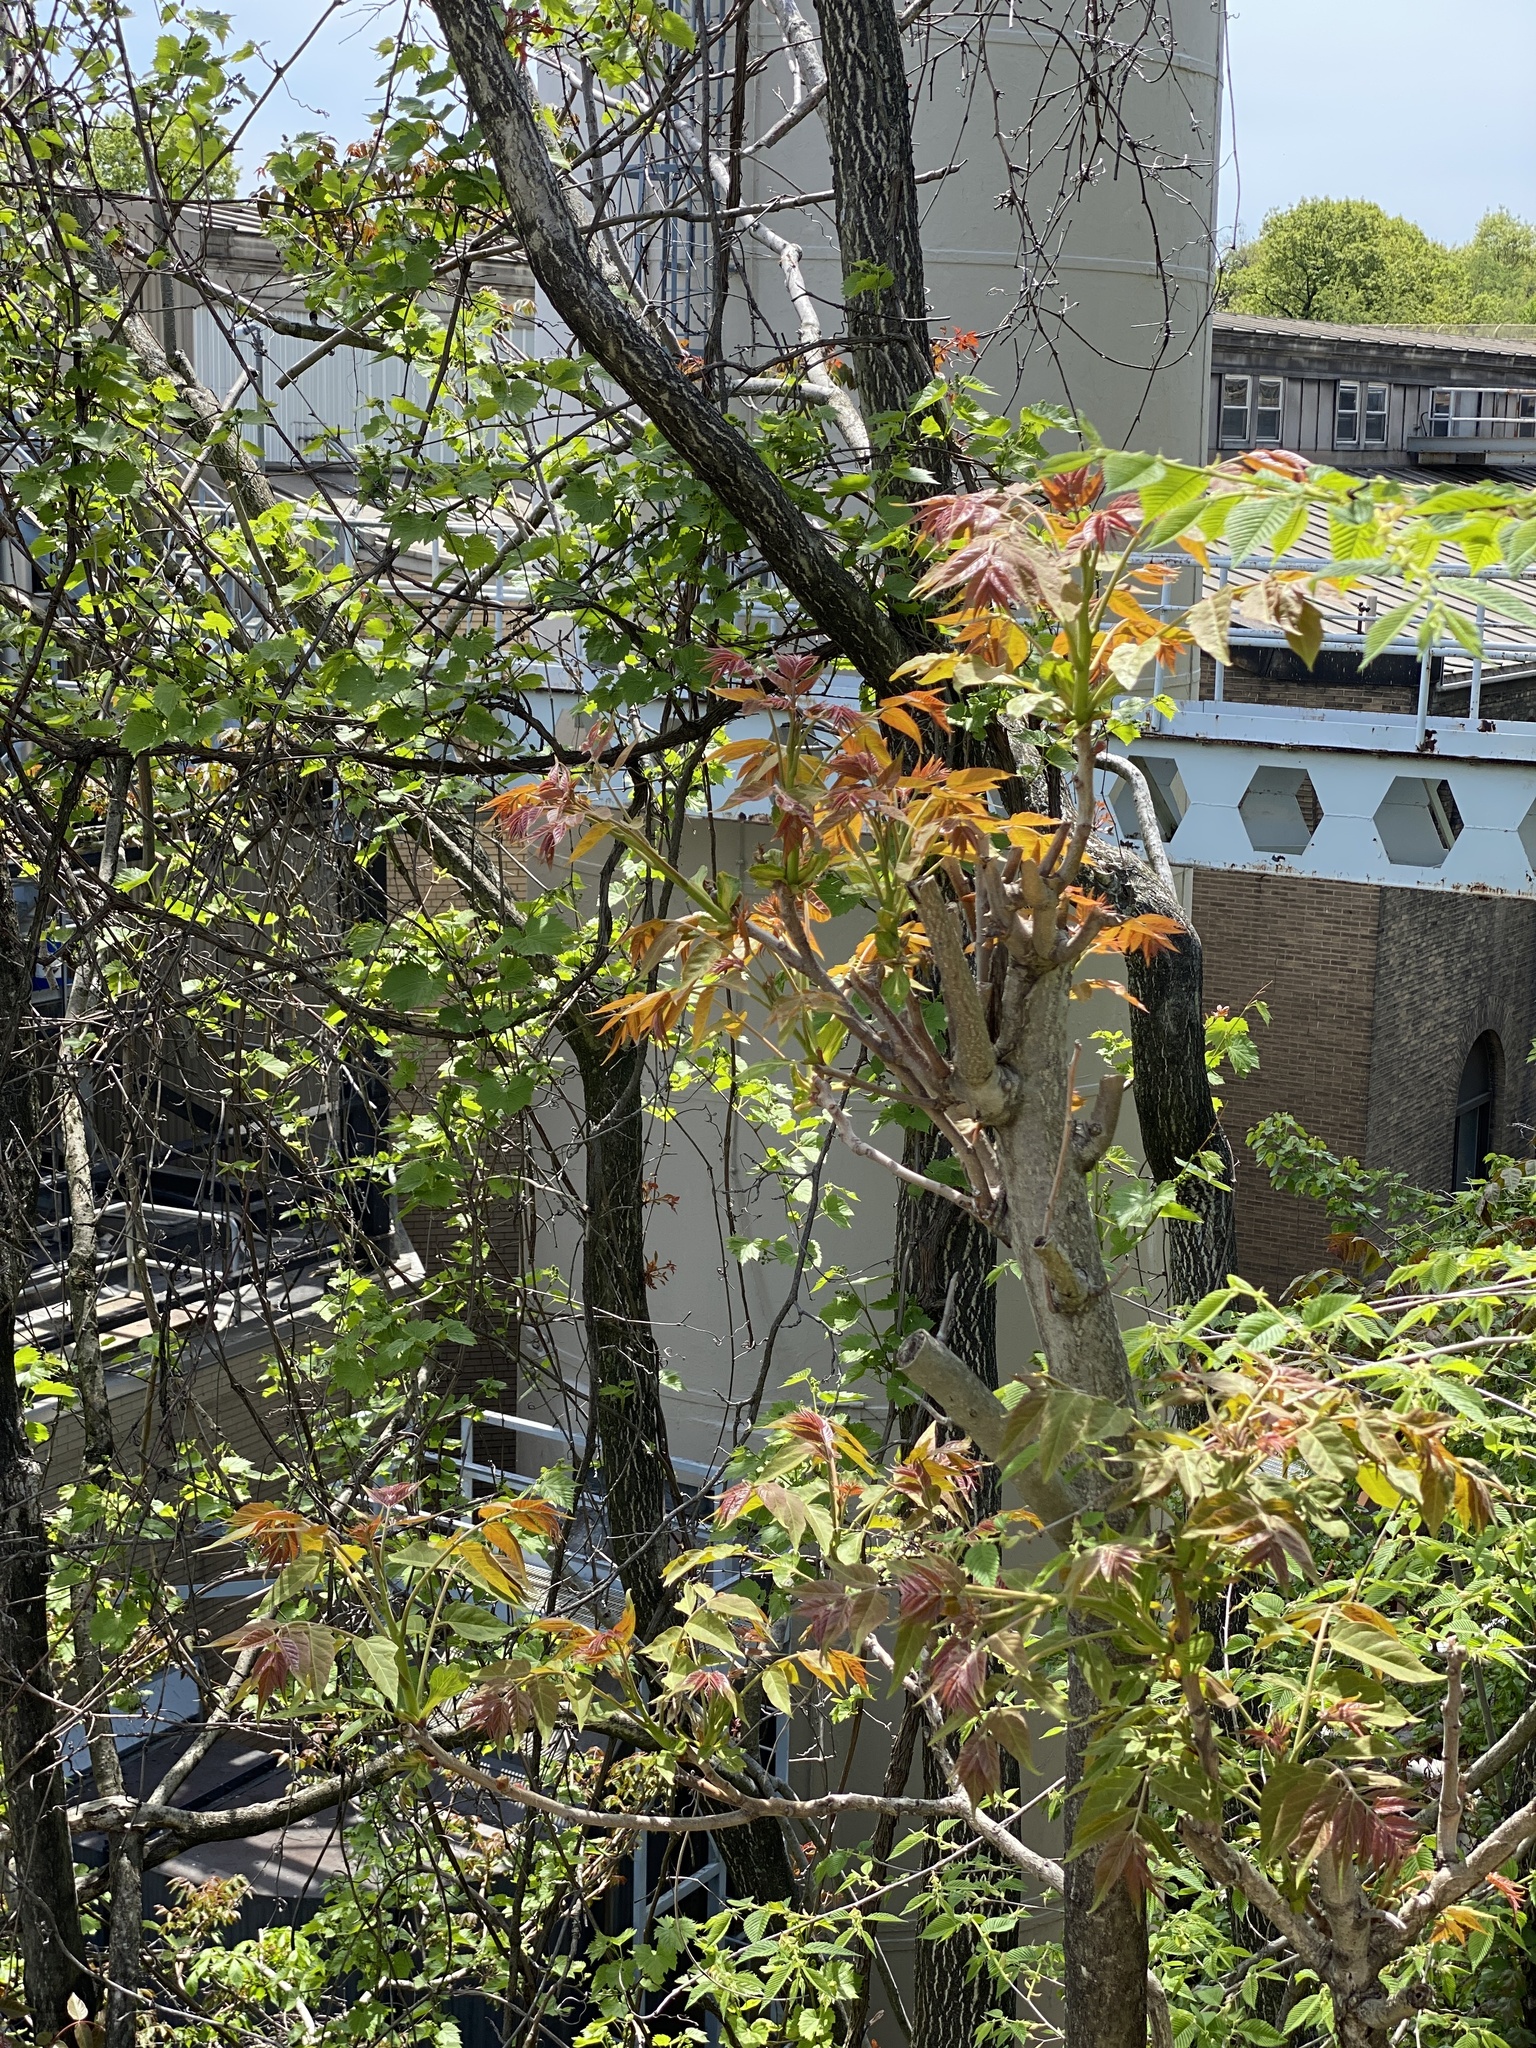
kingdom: Plantae
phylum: Tracheophyta
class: Magnoliopsida
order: Sapindales
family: Simaroubaceae
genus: Ailanthus
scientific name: Ailanthus altissima
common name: Tree-of-heaven
